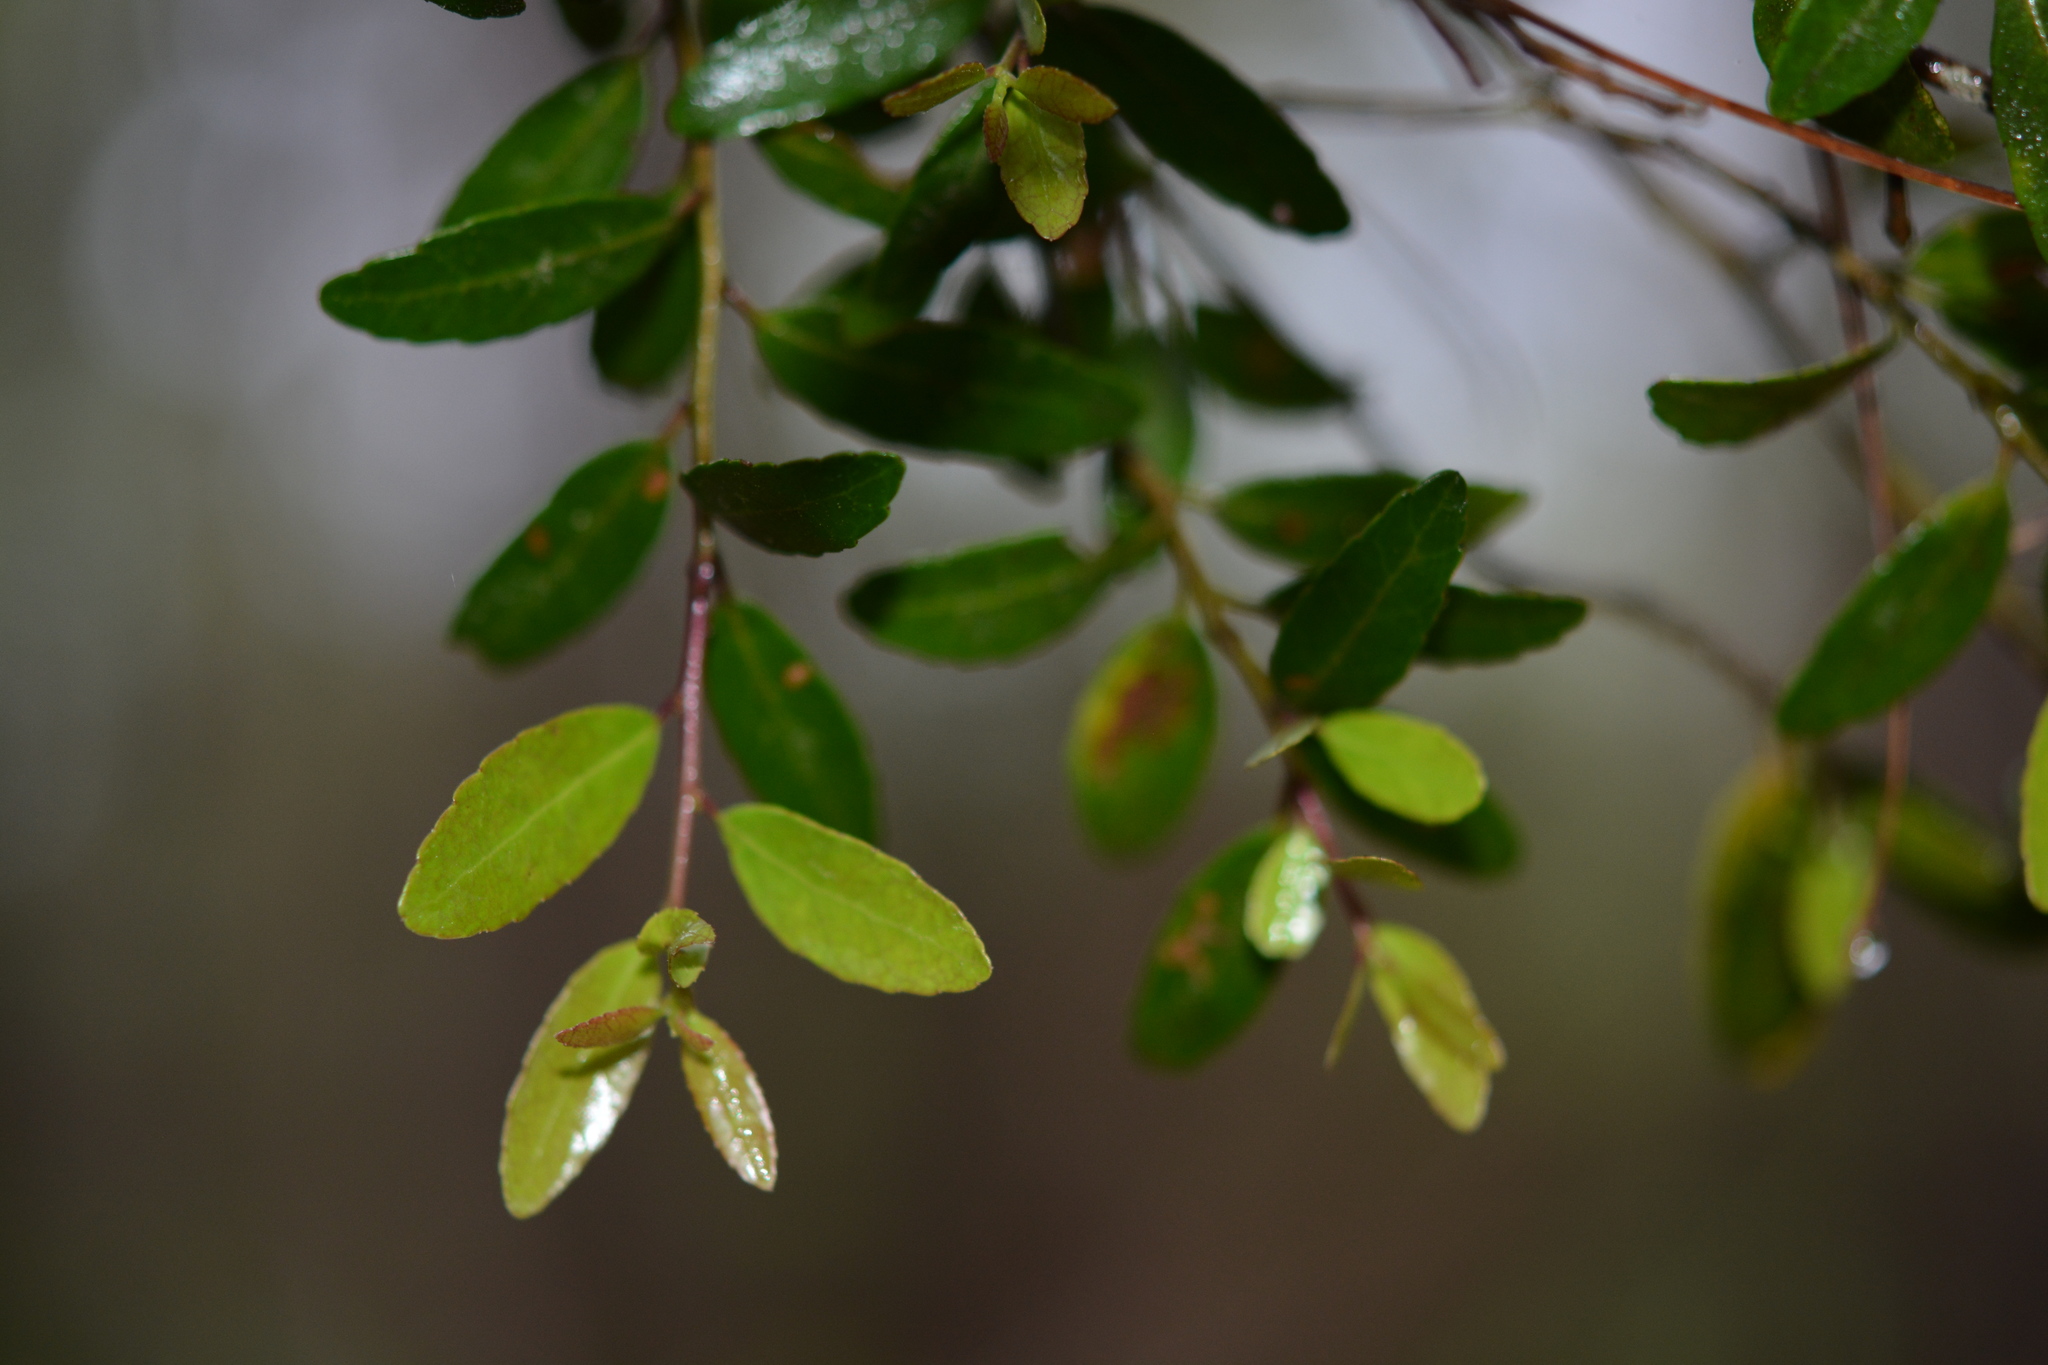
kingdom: Plantae
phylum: Tracheophyta
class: Magnoliopsida
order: Aquifoliales
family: Aquifoliaceae
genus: Ilex
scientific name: Ilex vomitoria
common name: Yaupon holly
